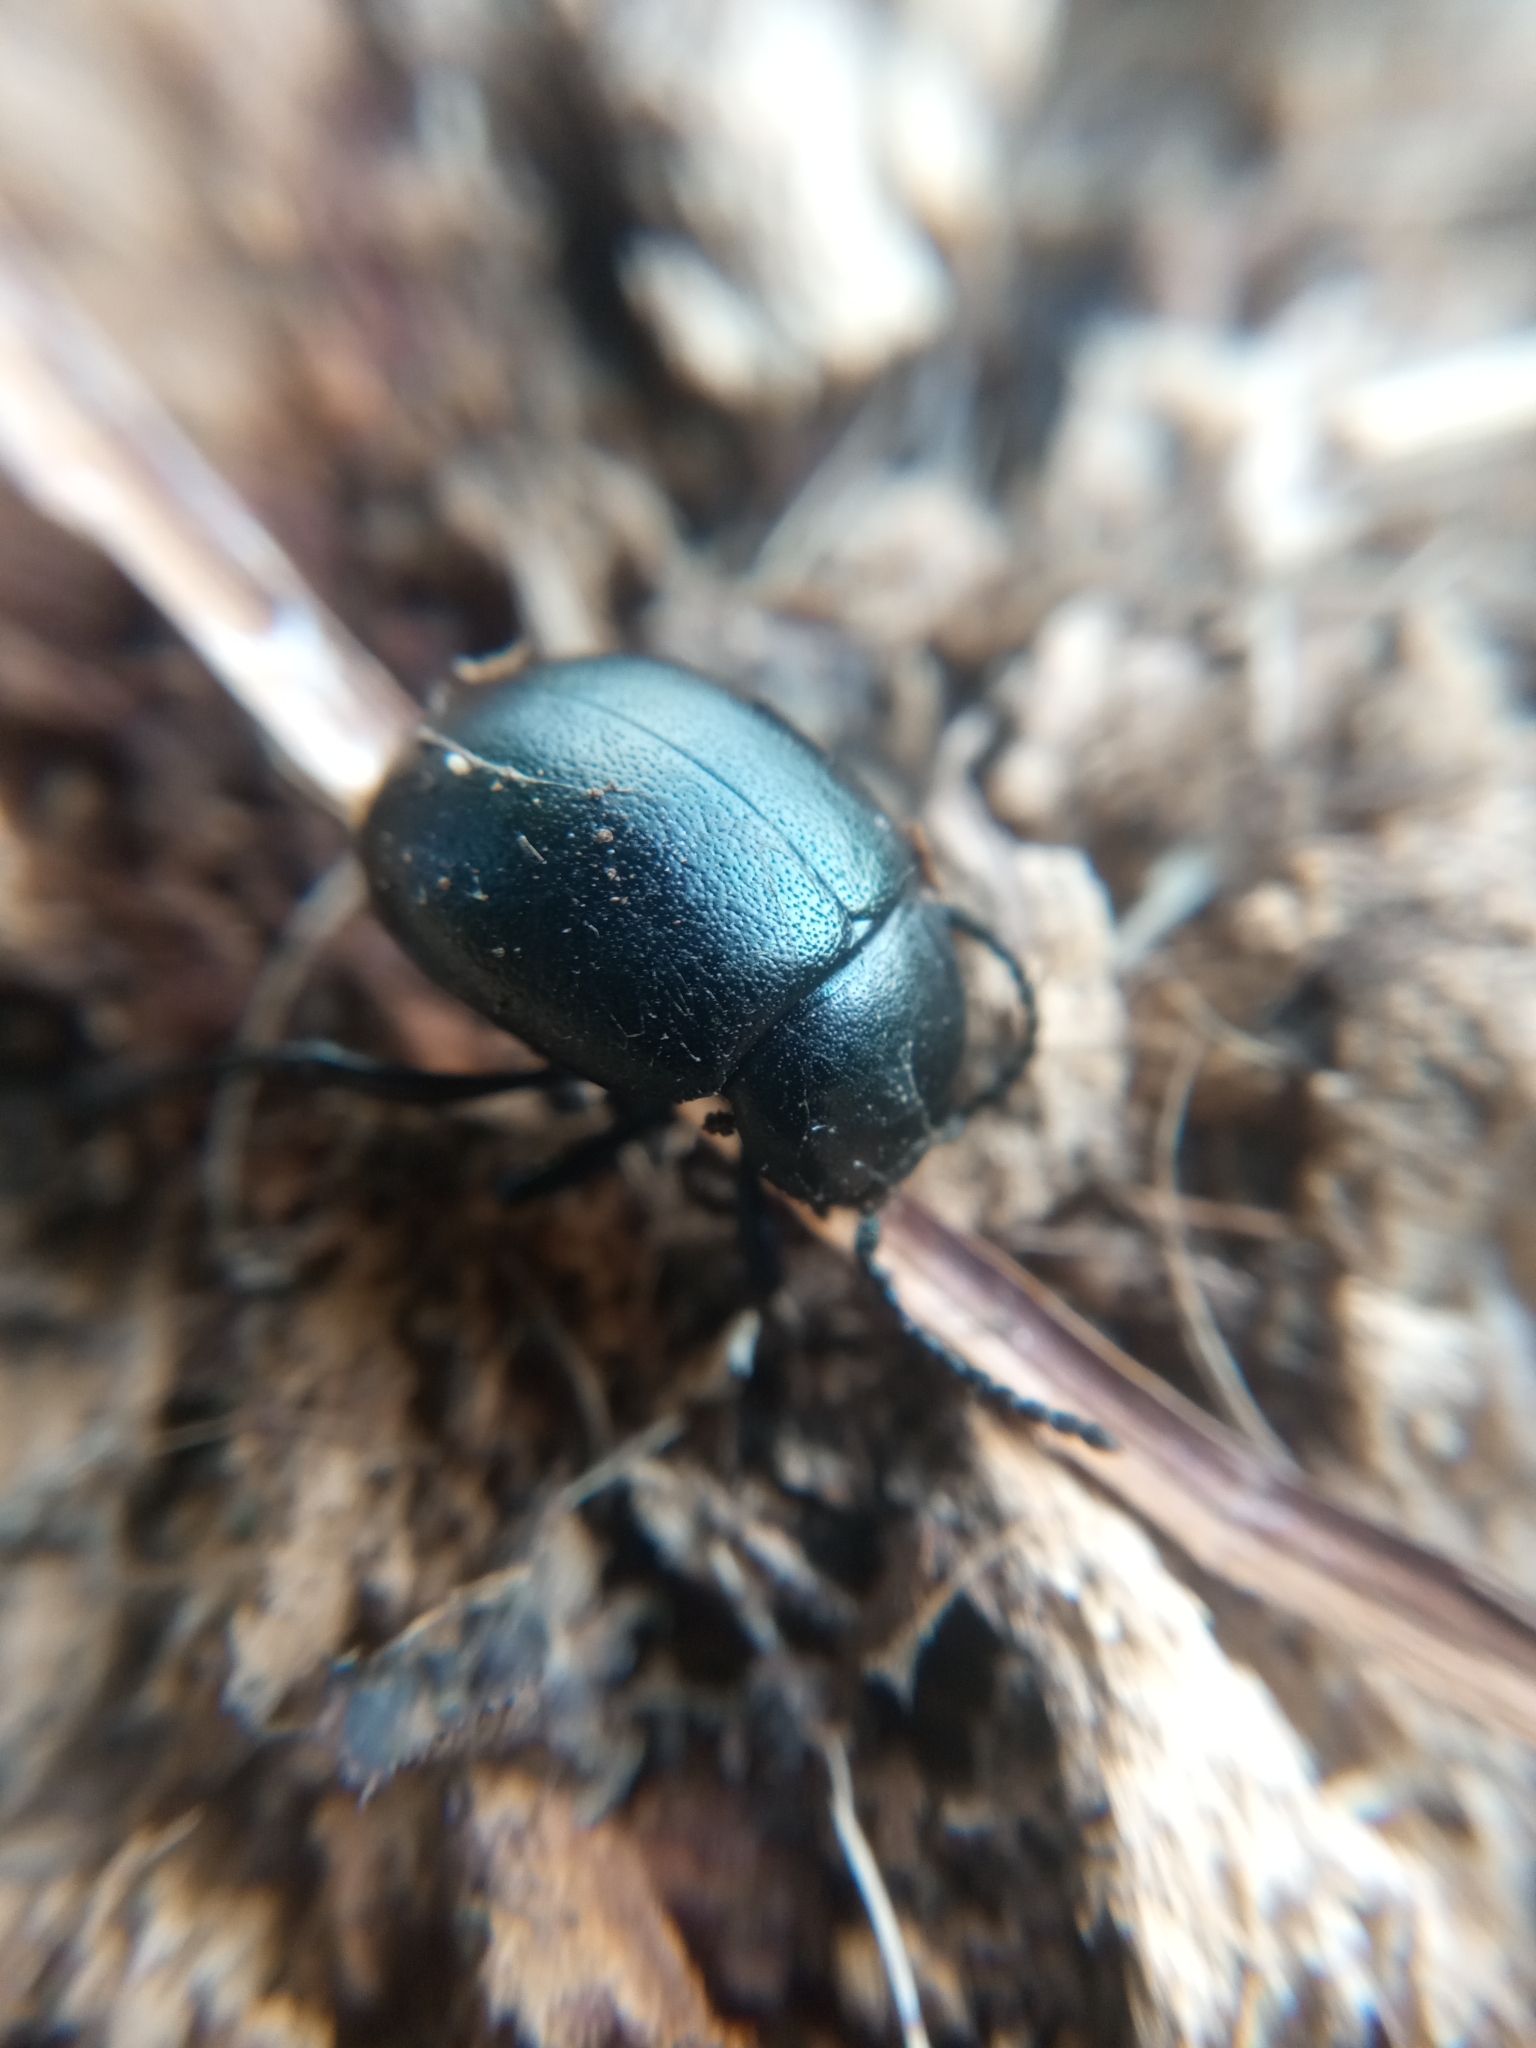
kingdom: Animalia
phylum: Arthropoda
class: Insecta
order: Coleoptera
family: Chrysomelidae
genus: Chrysolina
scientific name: Chrysolina haemoptera
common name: Plantain leaf beetle
